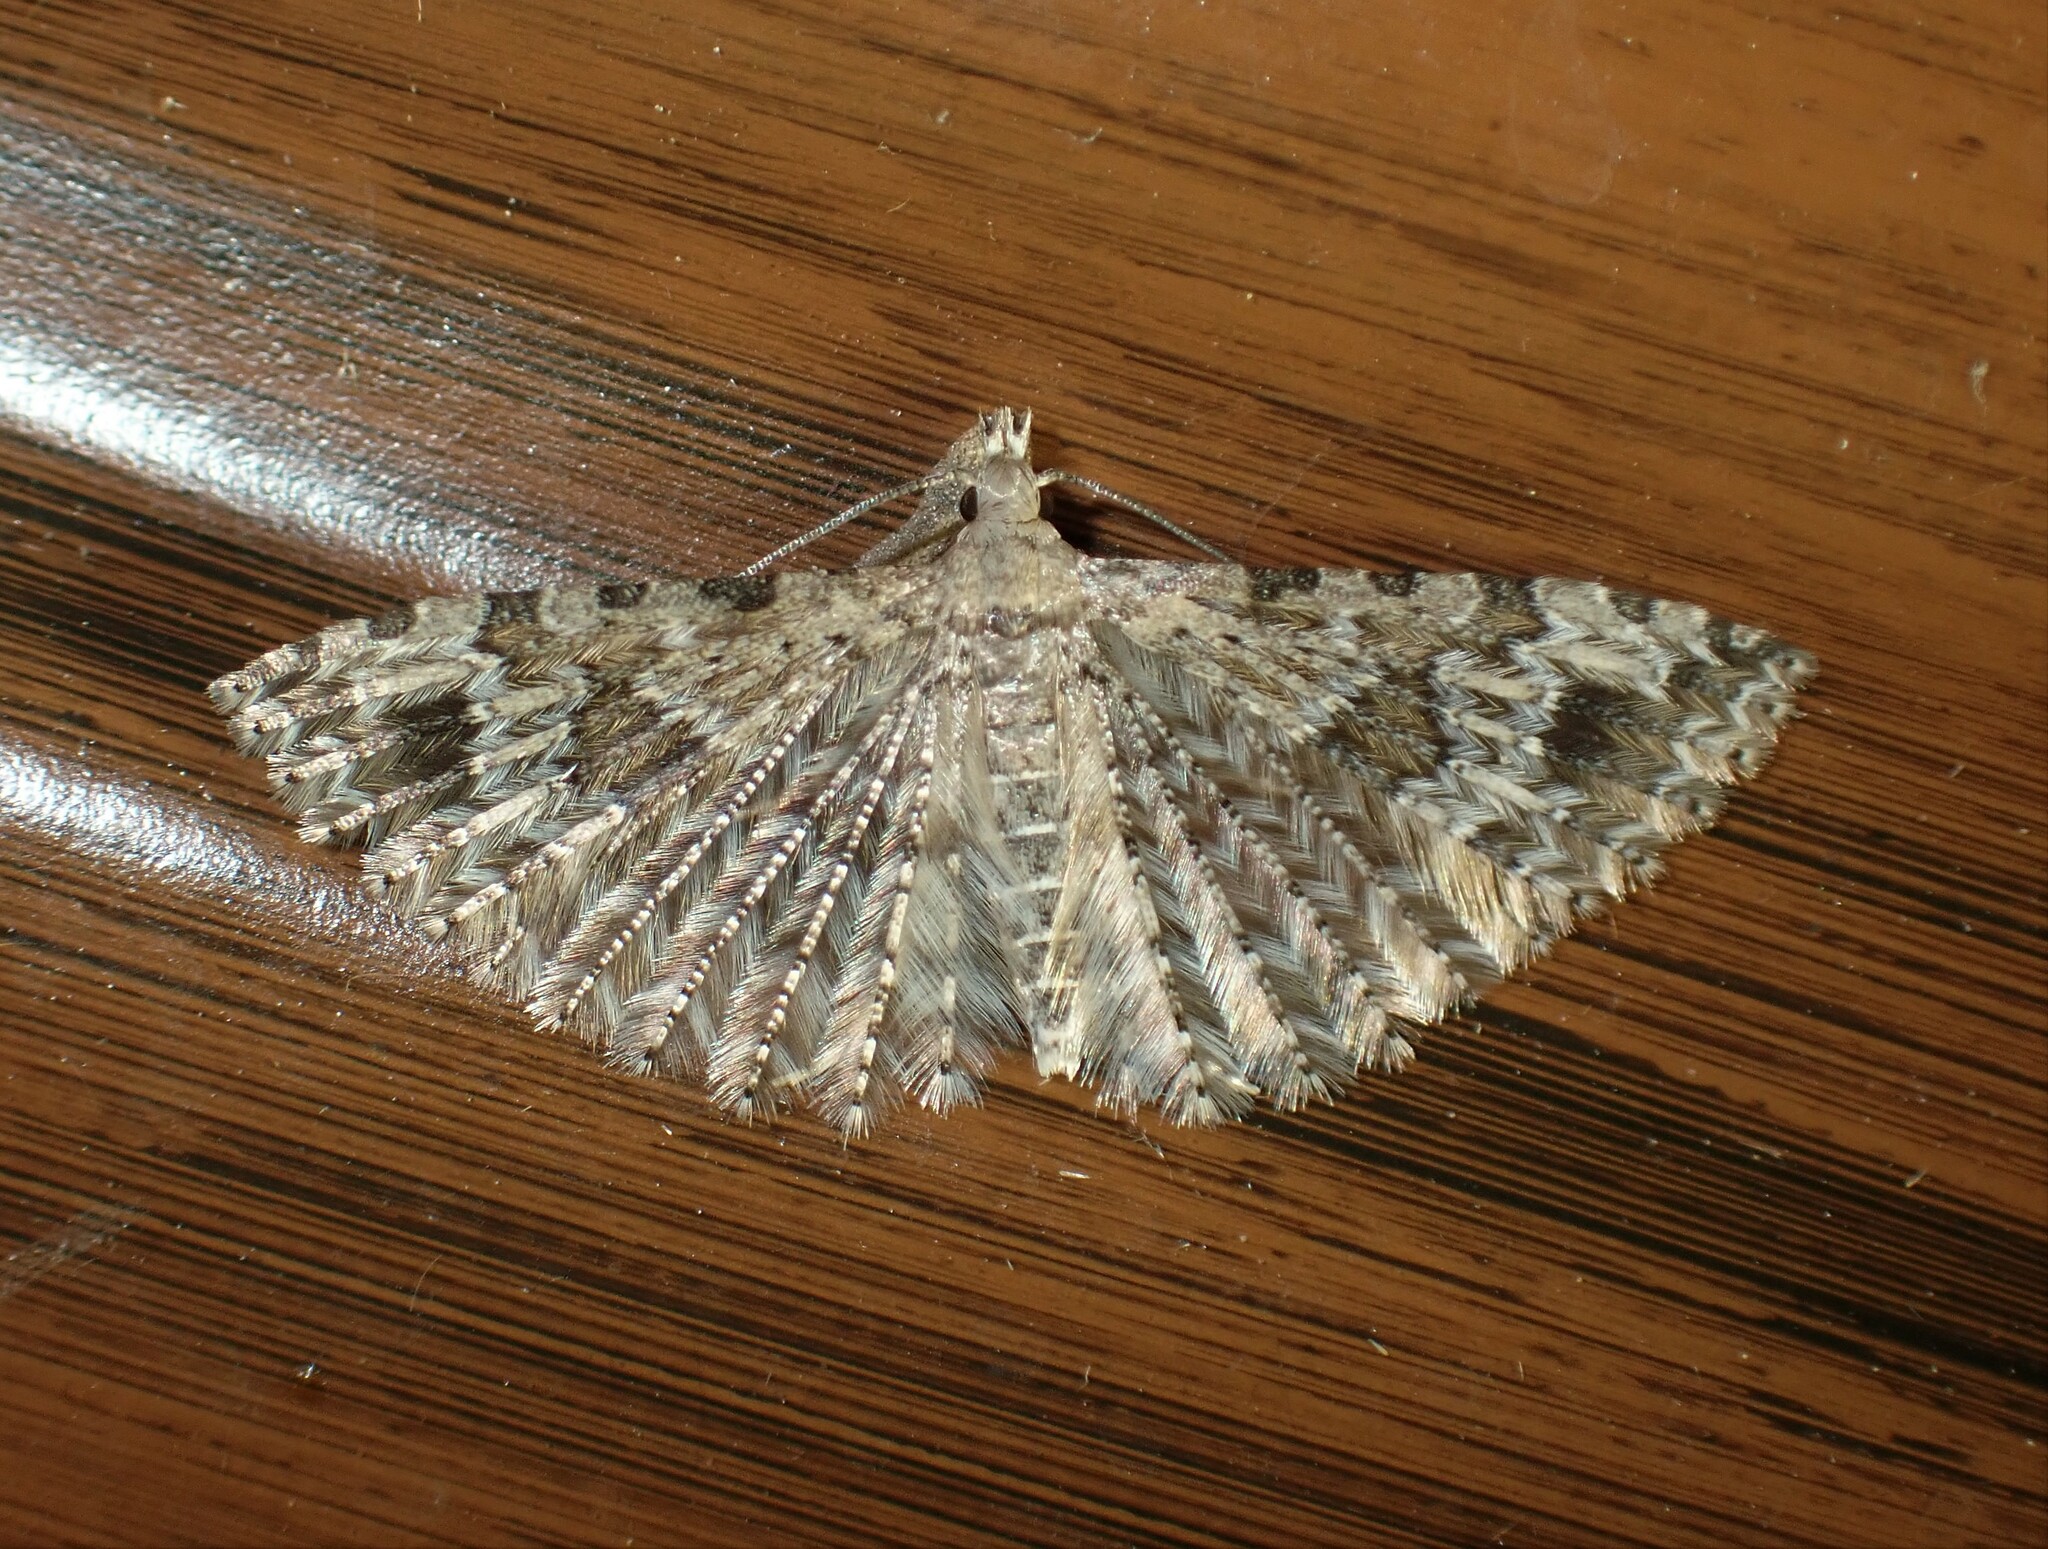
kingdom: Animalia
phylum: Arthropoda
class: Insecta
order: Lepidoptera
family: Alucitidae
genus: Alucita
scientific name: Alucita adriendenisi
